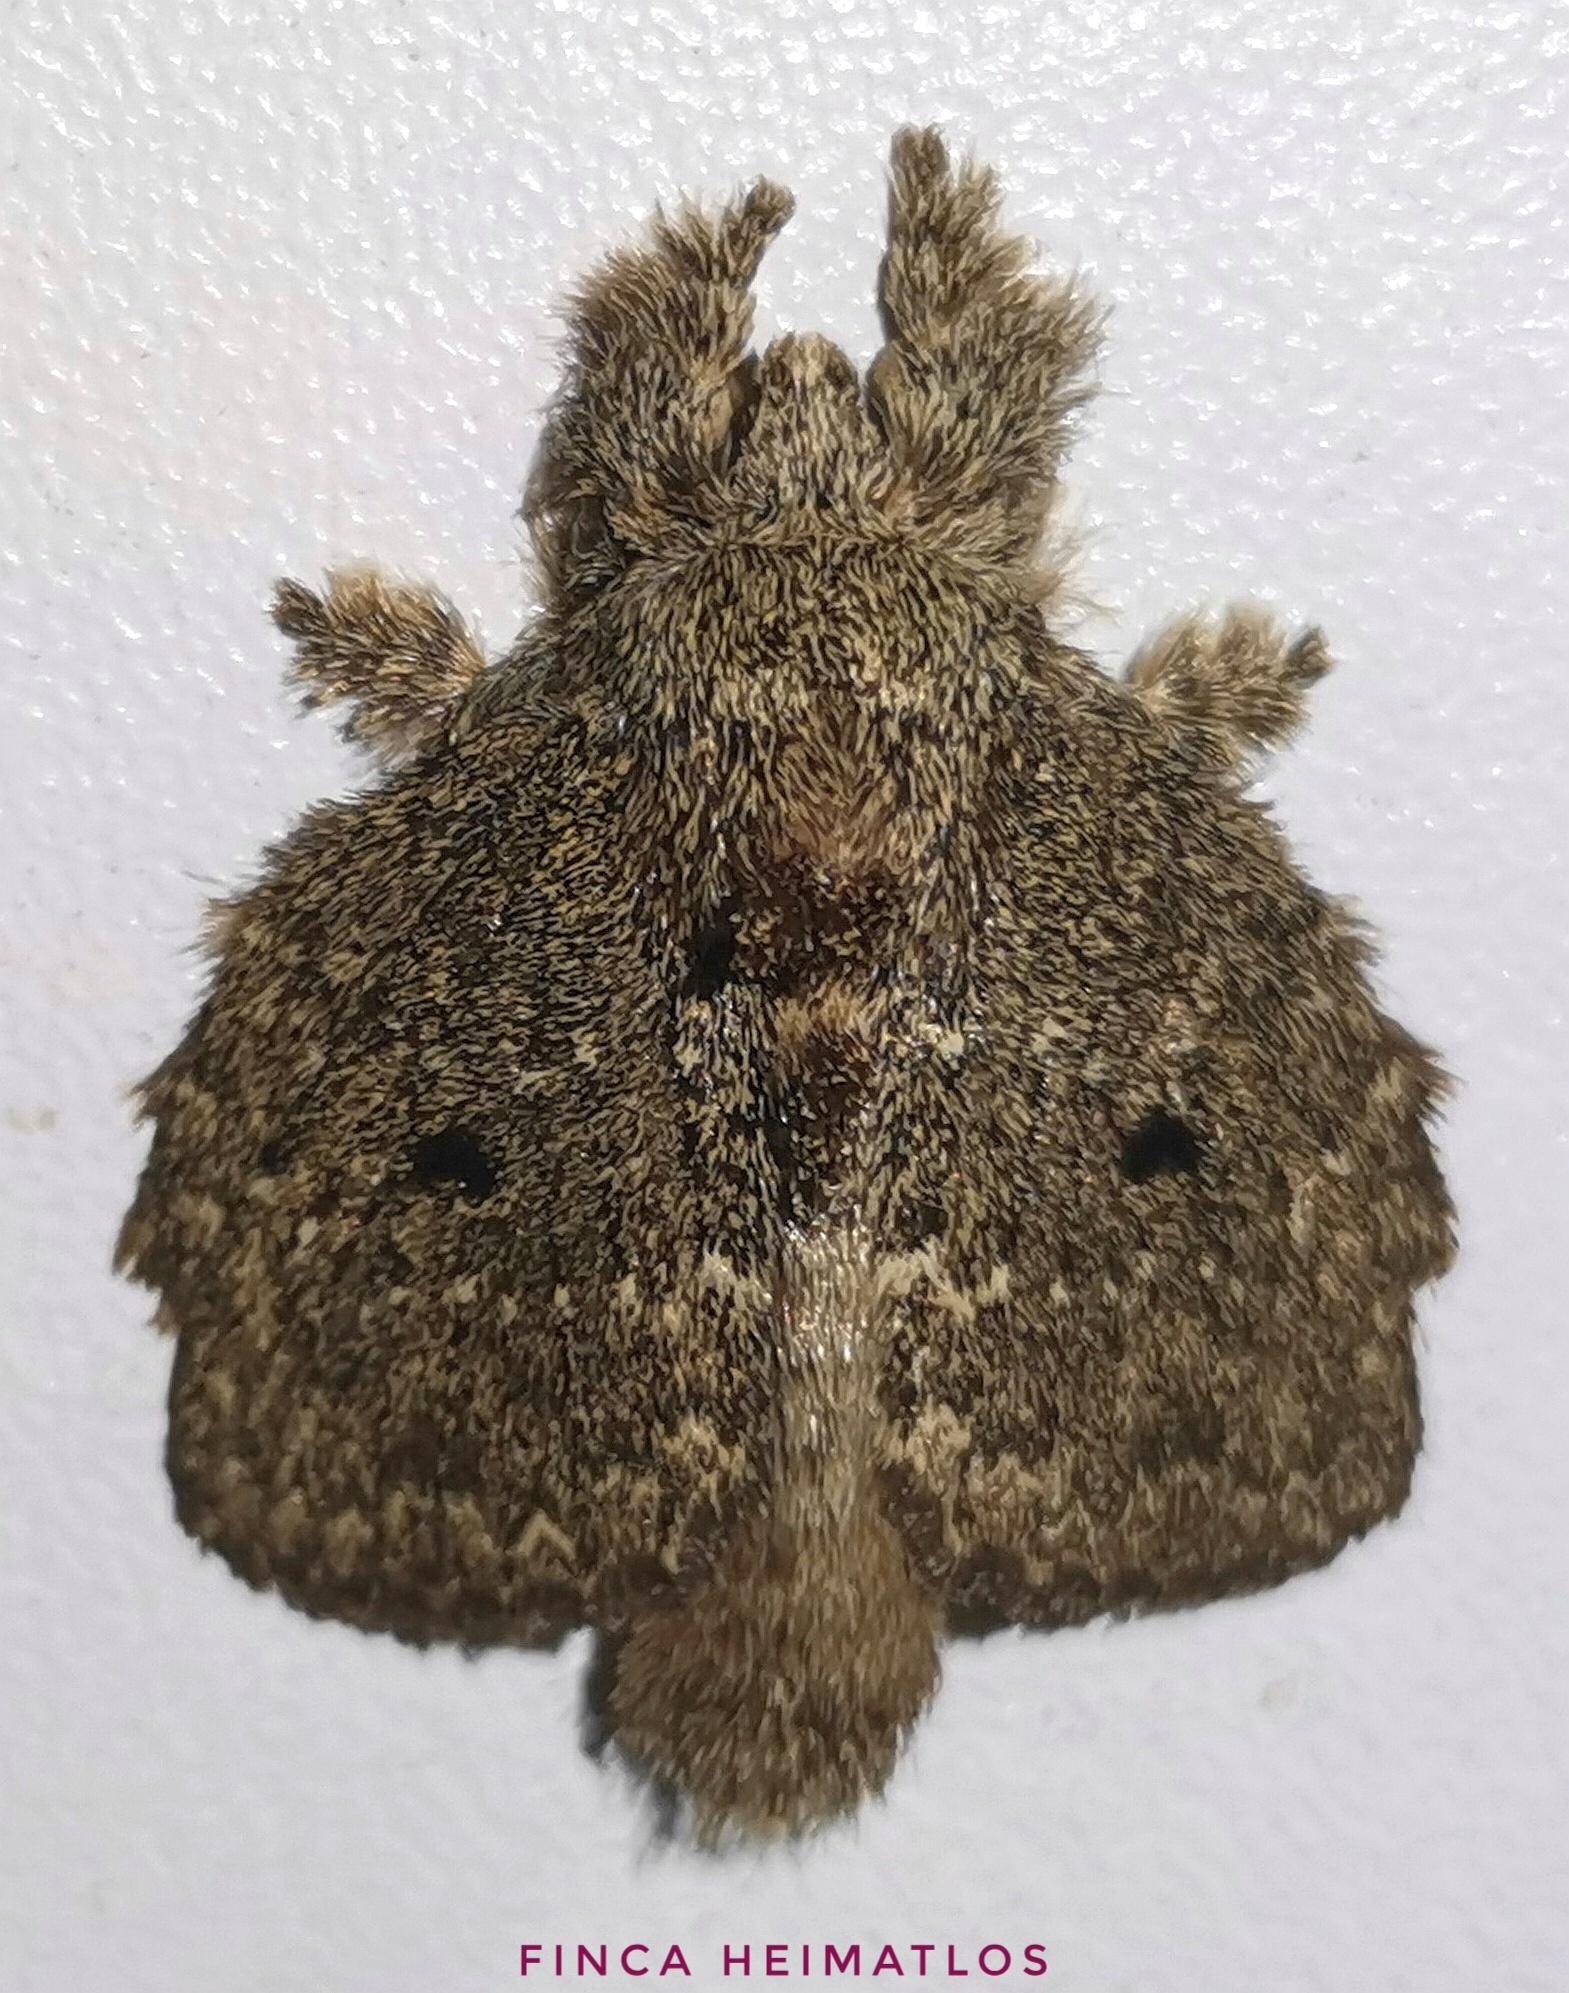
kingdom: Animalia
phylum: Arthropoda
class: Insecta
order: Lepidoptera
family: Lasiocampidae
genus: Euglyphis
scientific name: Euglyphis amathuria
